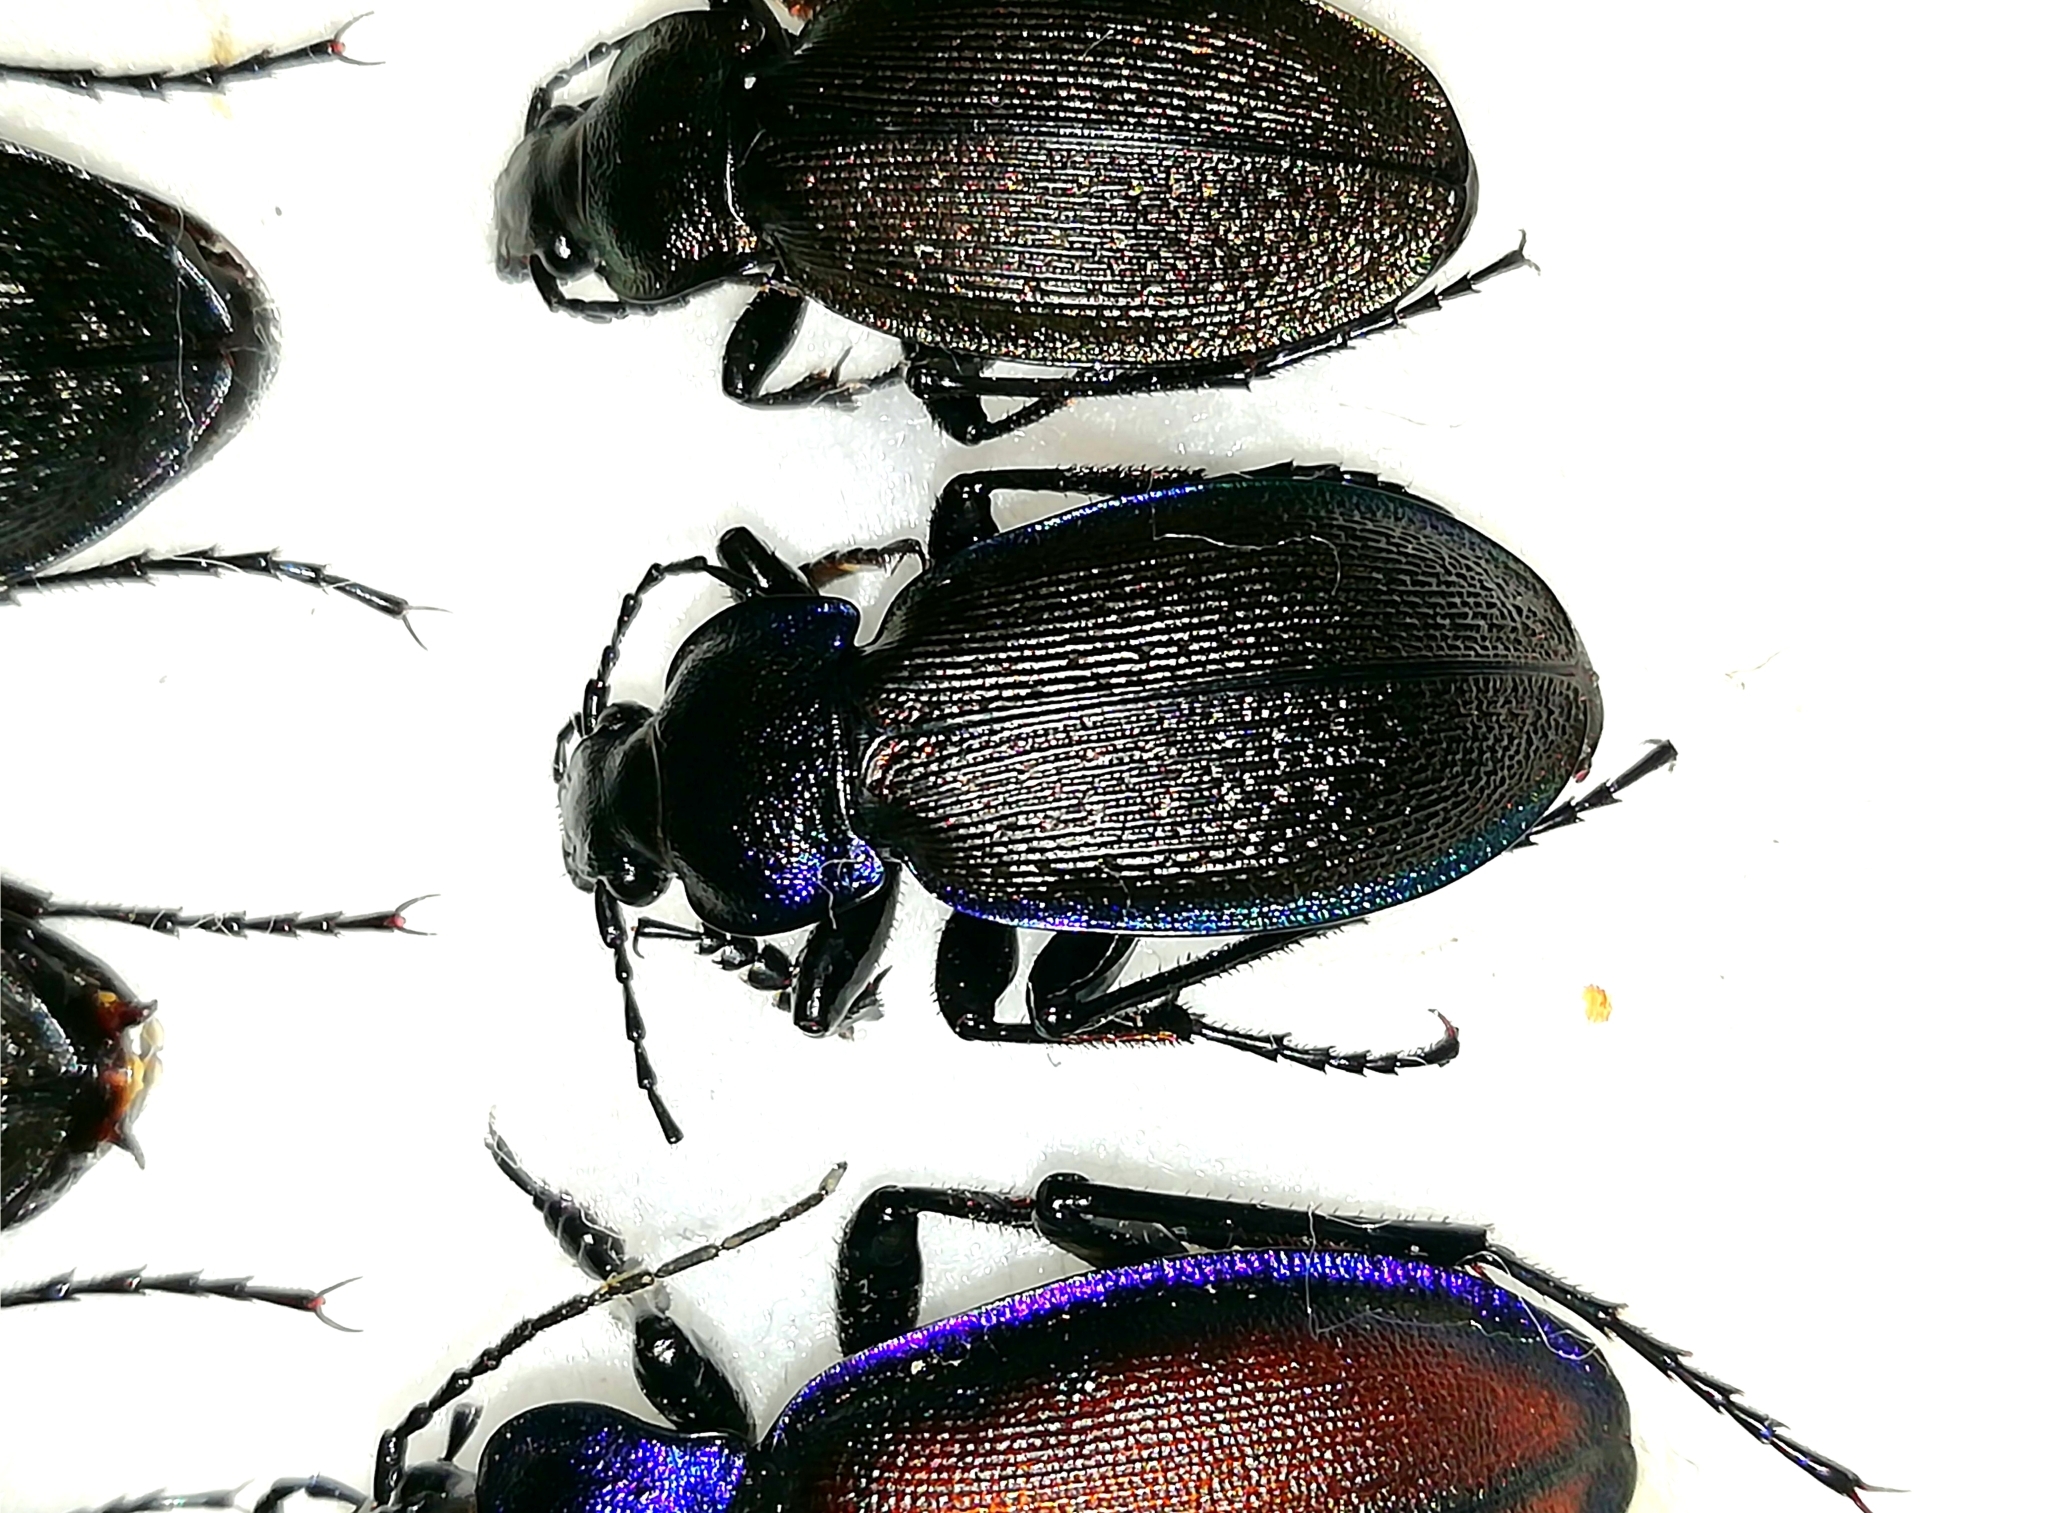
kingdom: Animalia
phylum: Arthropoda
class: Insecta
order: Coleoptera
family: Carabidae
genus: Carabus
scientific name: Carabus regalis
